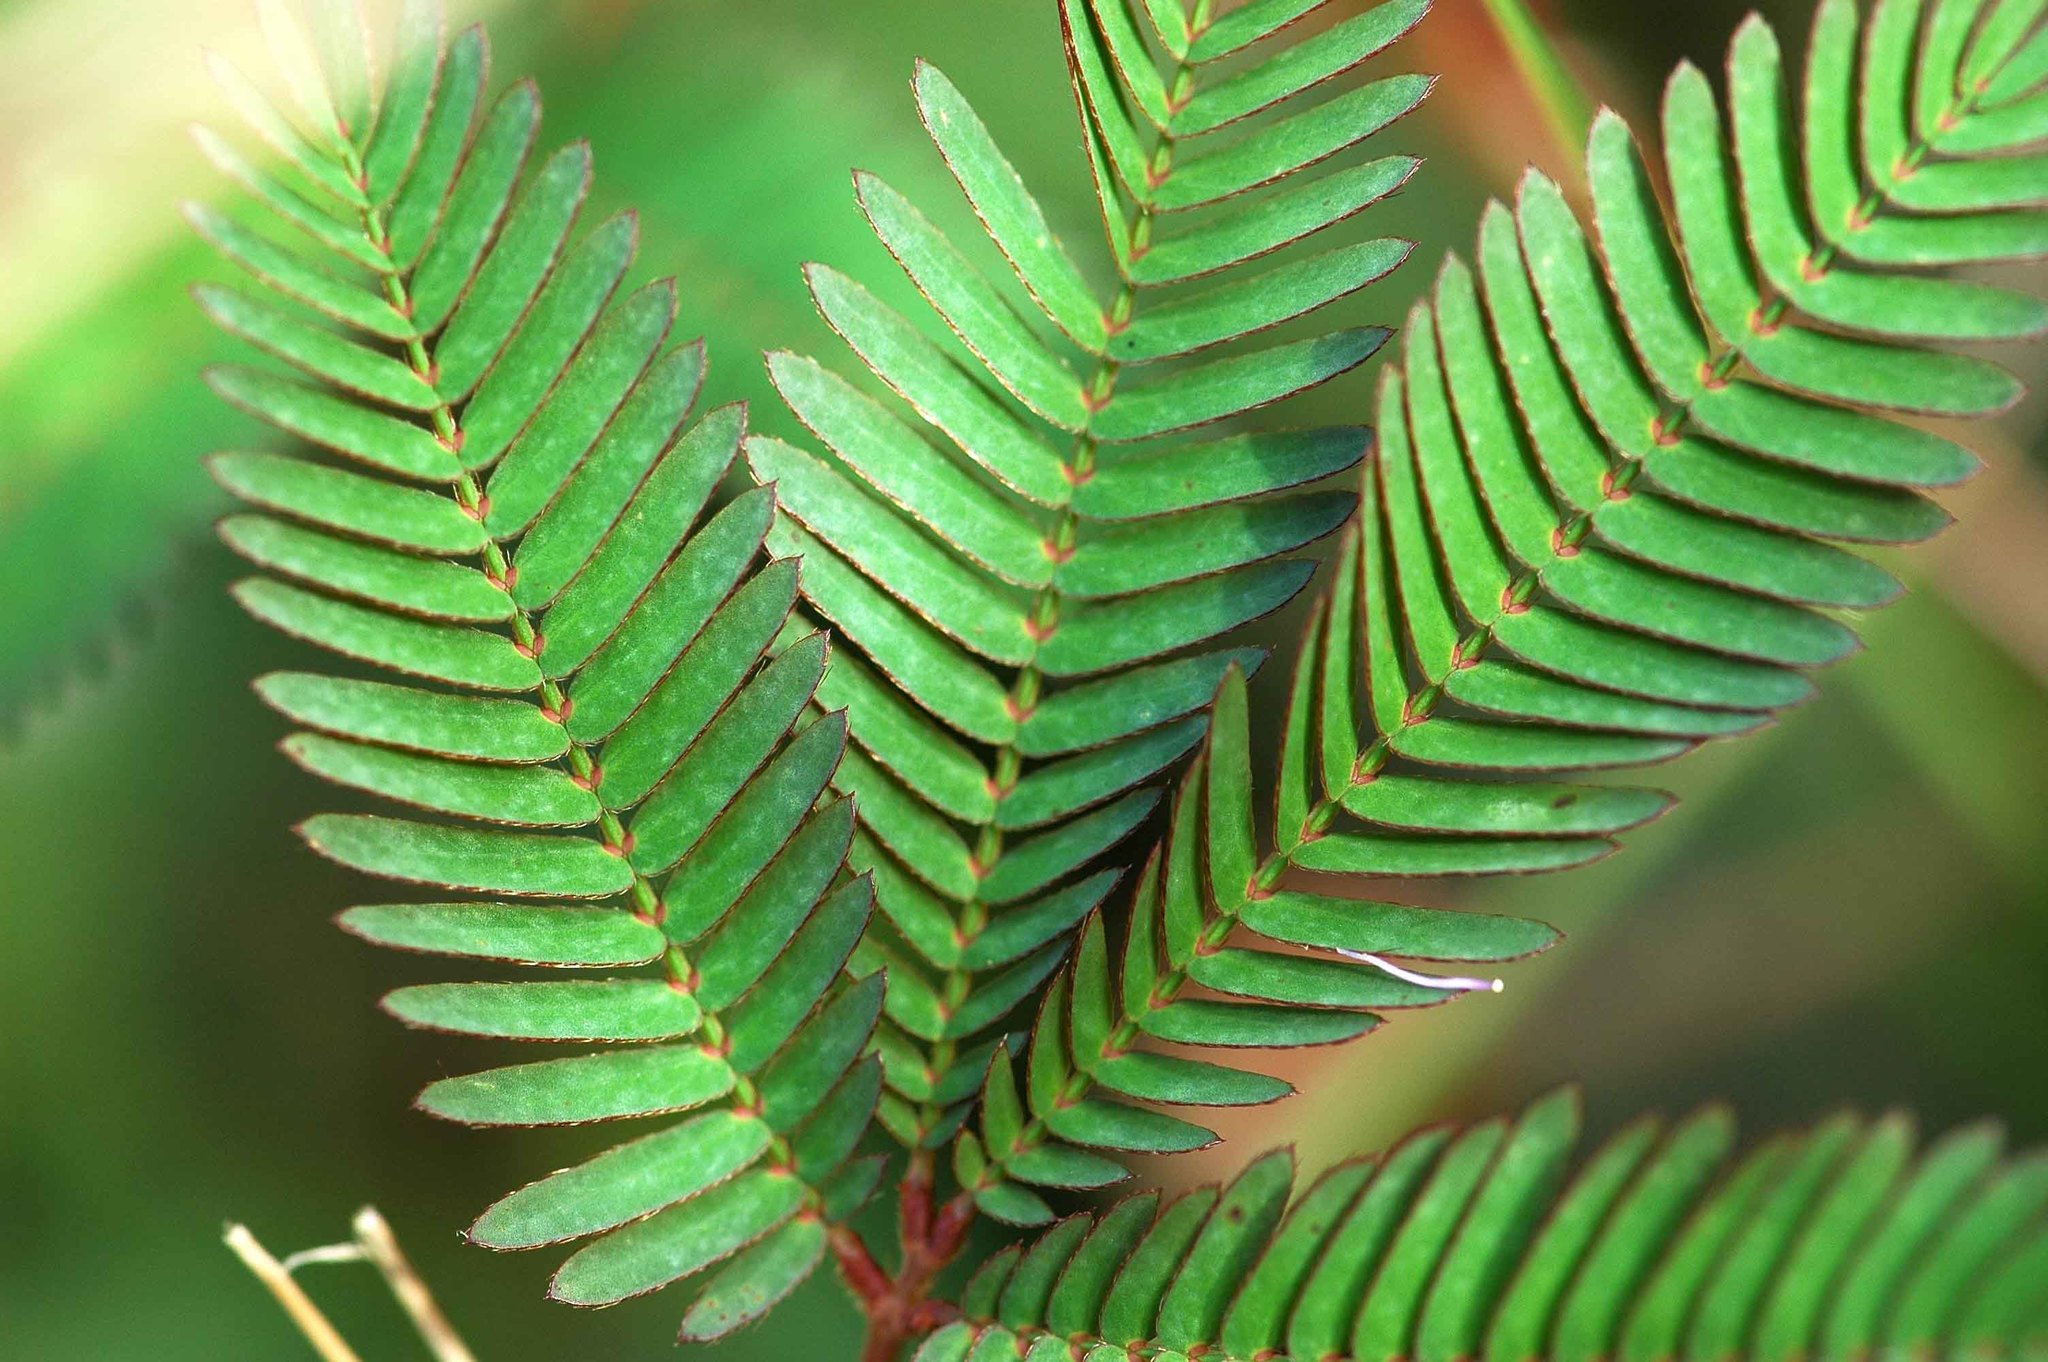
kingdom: Plantae
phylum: Tracheophyta
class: Magnoliopsida
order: Fabales
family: Fabaceae
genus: Mimosa
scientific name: Mimosa pudica
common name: Sensitive plant
